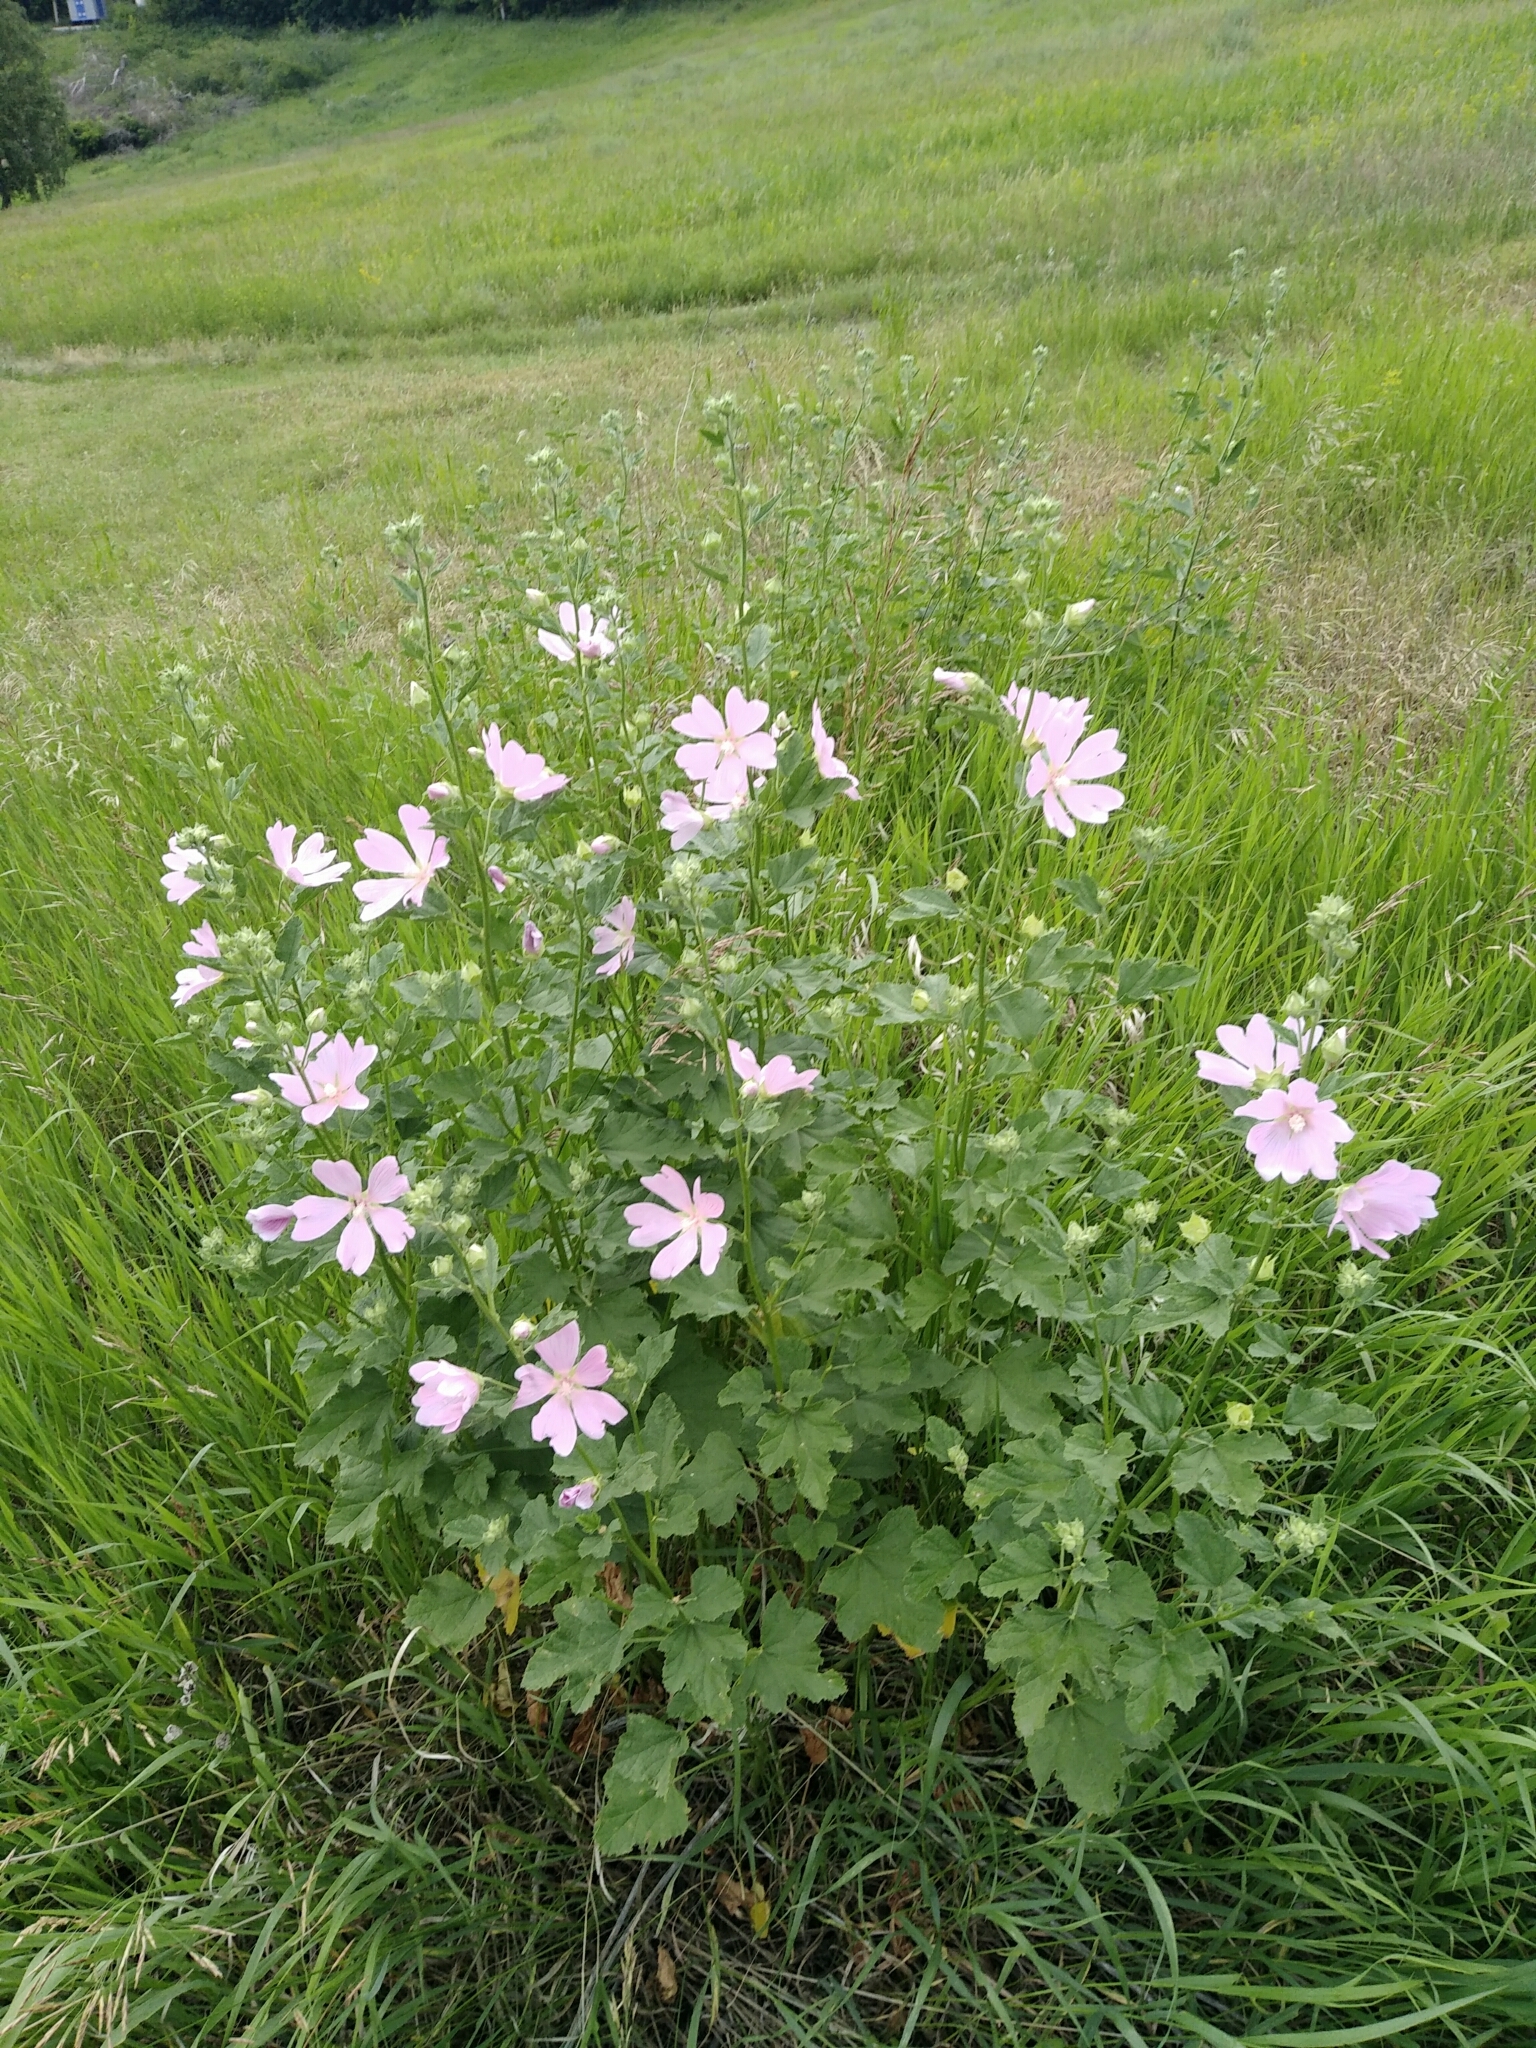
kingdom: Plantae
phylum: Tracheophyta
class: Magnoliopsida
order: Malvales
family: Malvaceae
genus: Malva
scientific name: Malva thuringiaca
